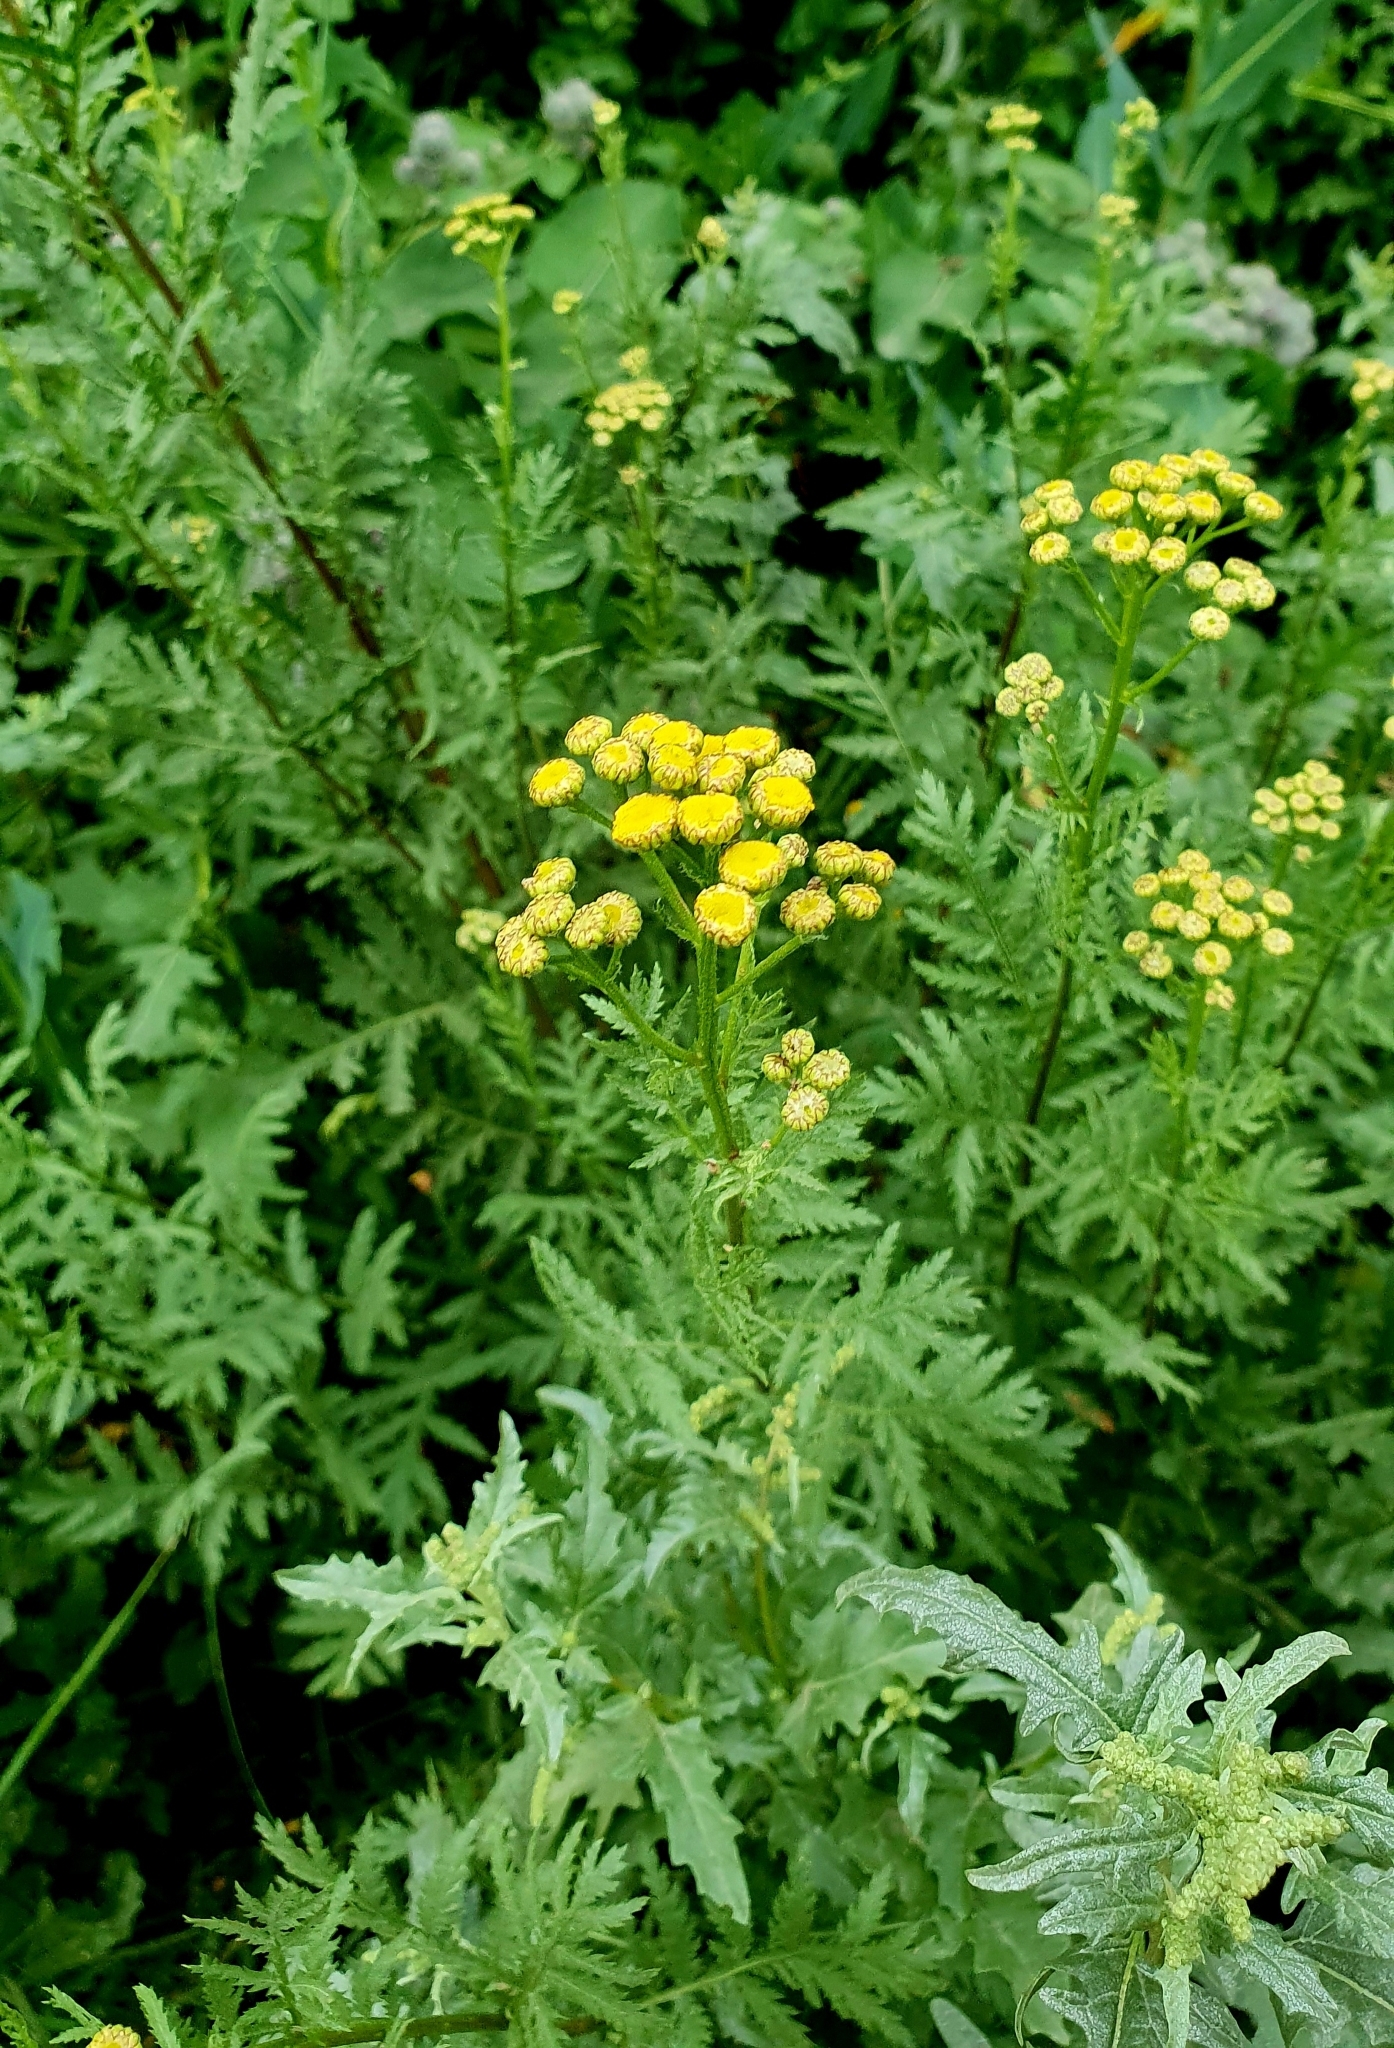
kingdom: Plantae
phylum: Tracheophyta
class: Magnoliopsida
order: Asterales
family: Asteraceae
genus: Tanacetum
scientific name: Tanacetum vulgare
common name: Common tansy
